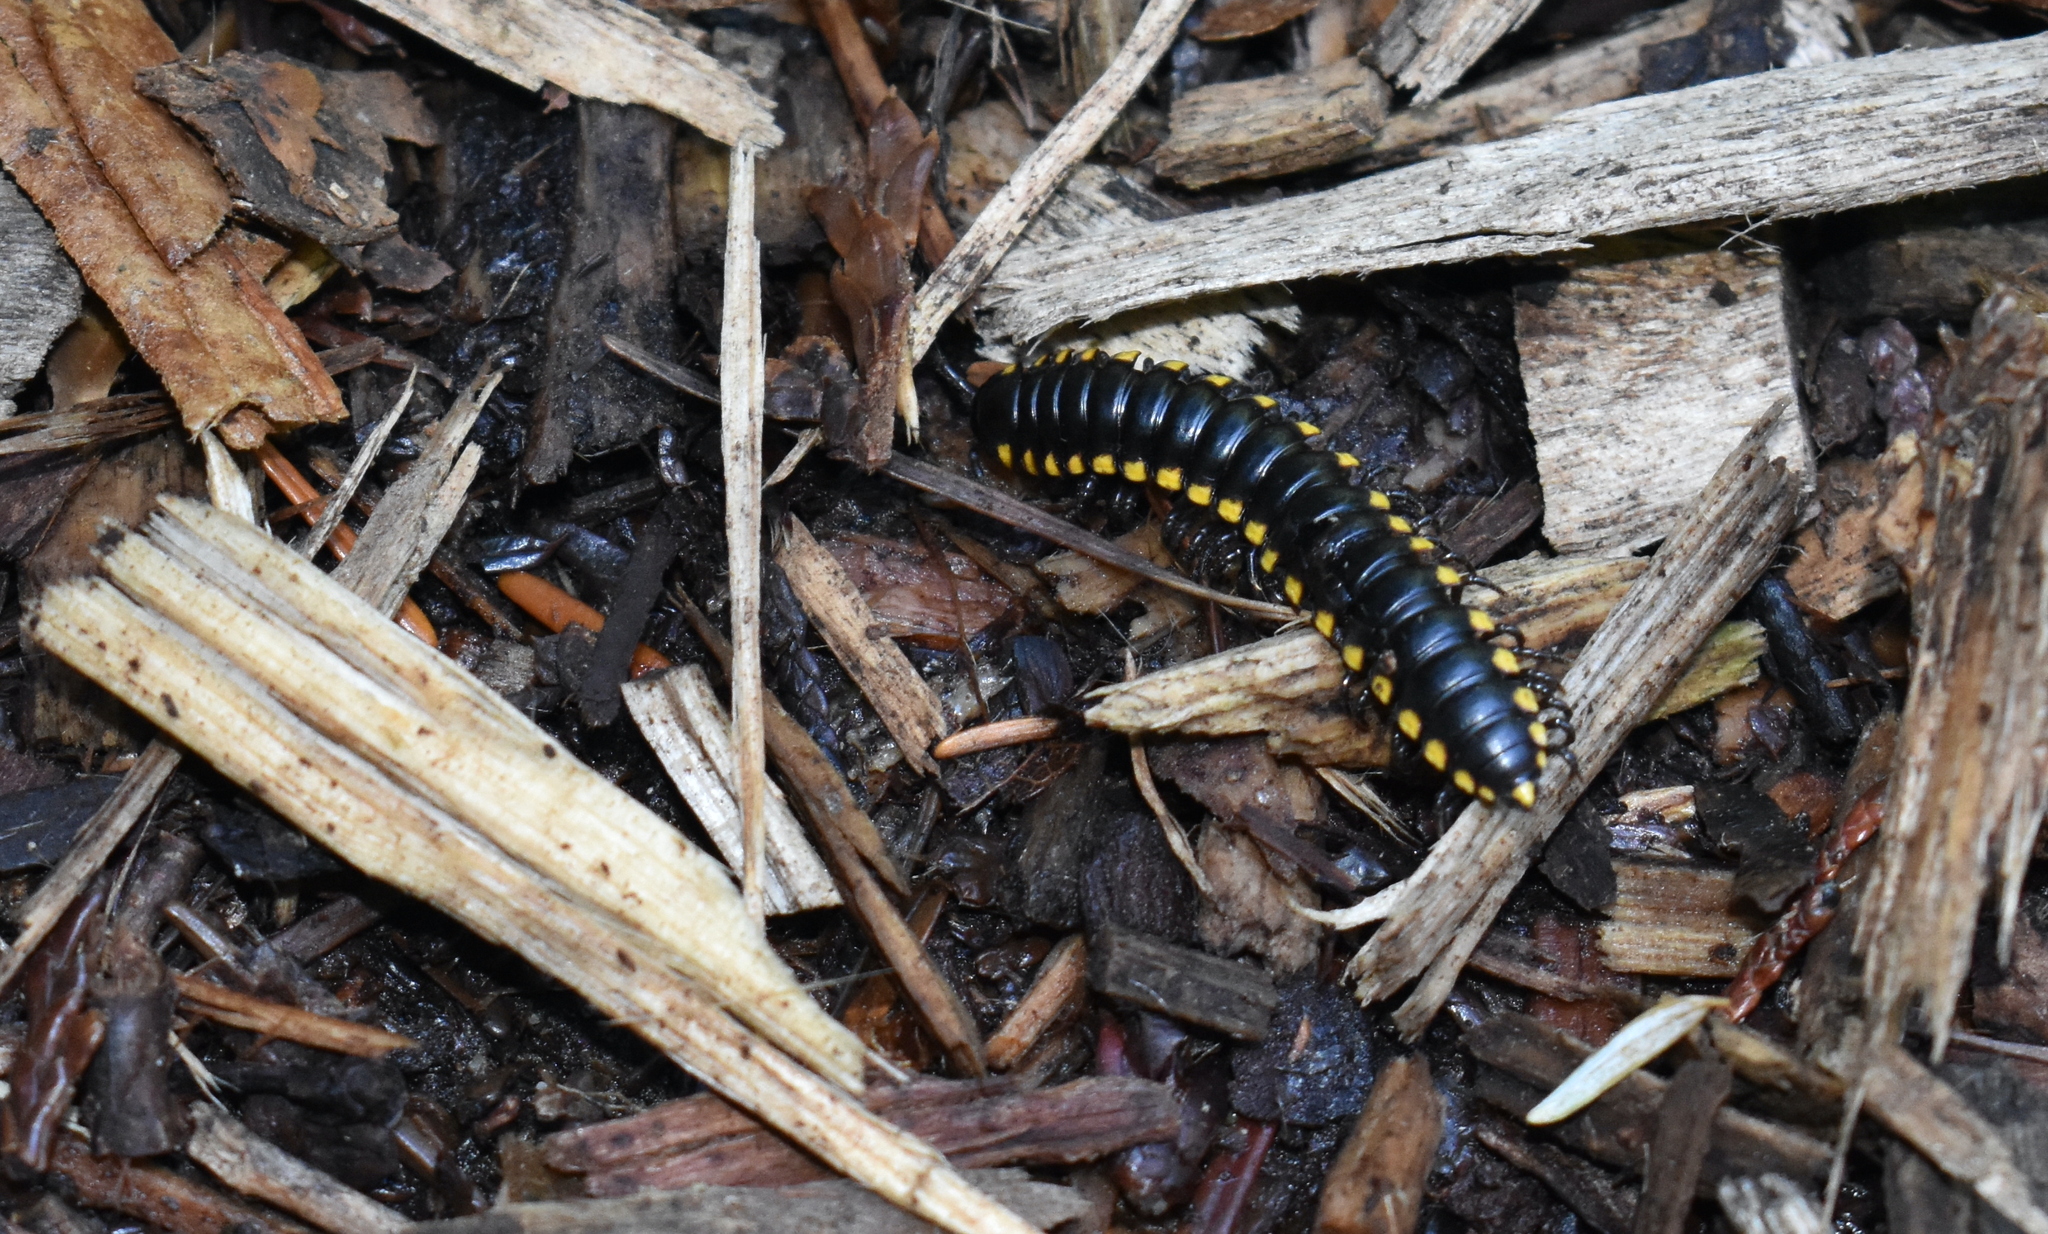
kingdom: Animalia
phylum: Arthropoda
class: Diplopoda
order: Polydesmida
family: Xystodesmidae
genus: Harpaphe
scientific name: Harpaphe haydeniana
